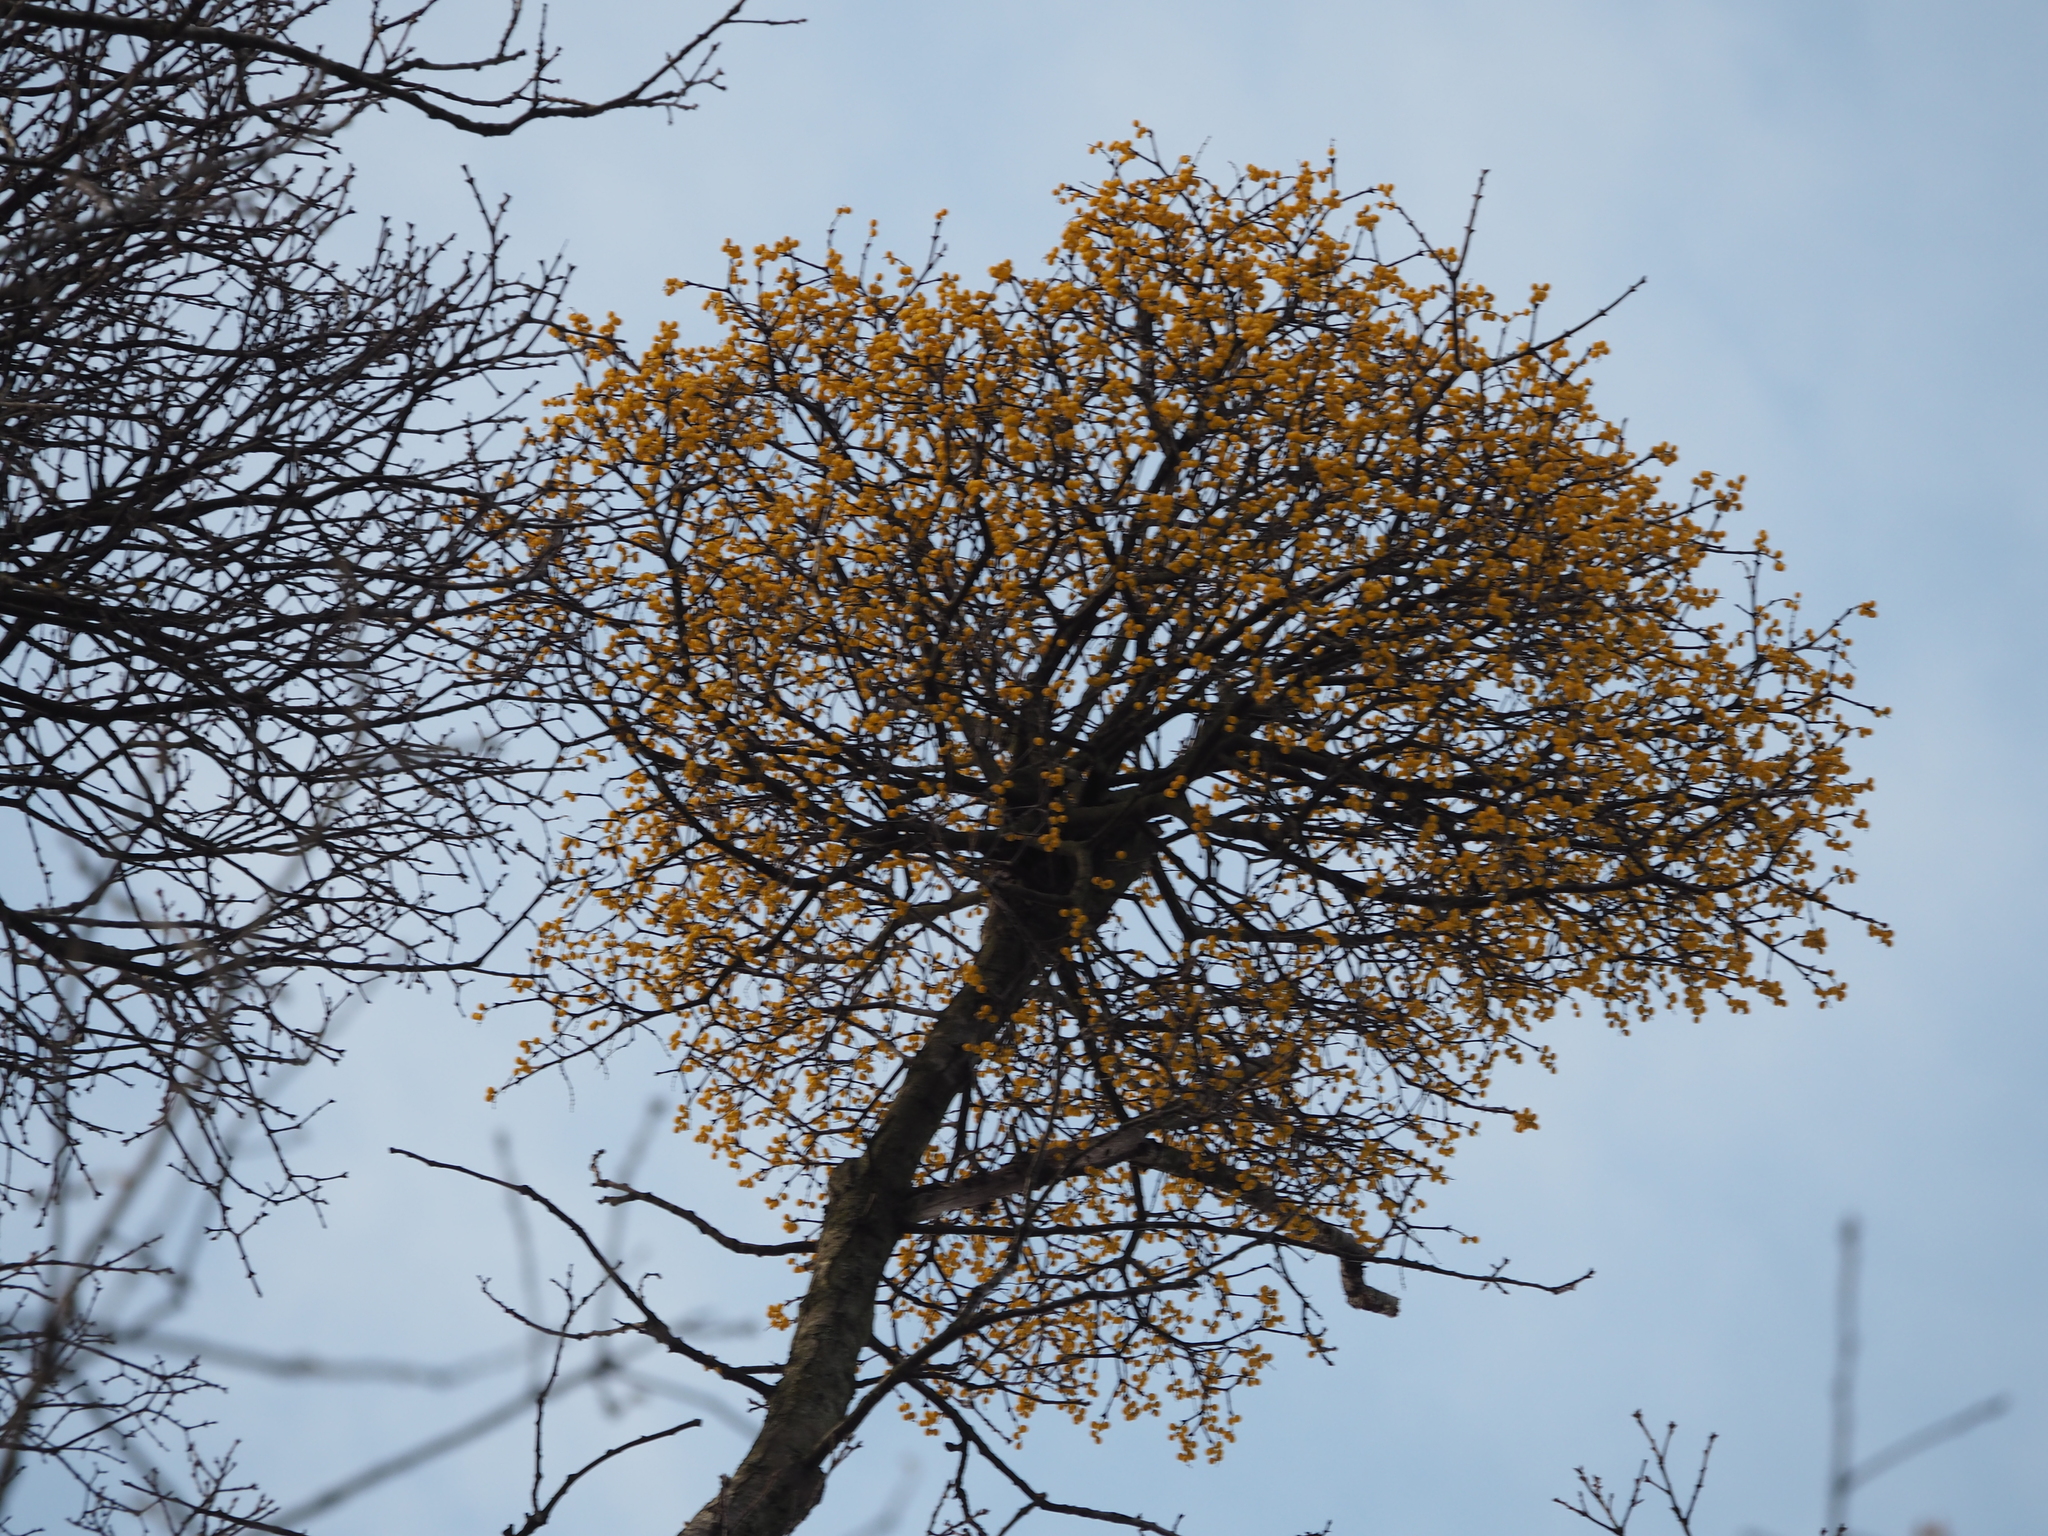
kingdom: Plantae
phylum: Tracheophyta
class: Magnoliopsida
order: Santalales
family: Loranthaceae
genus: Loranthus
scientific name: Loranthus europaeus
